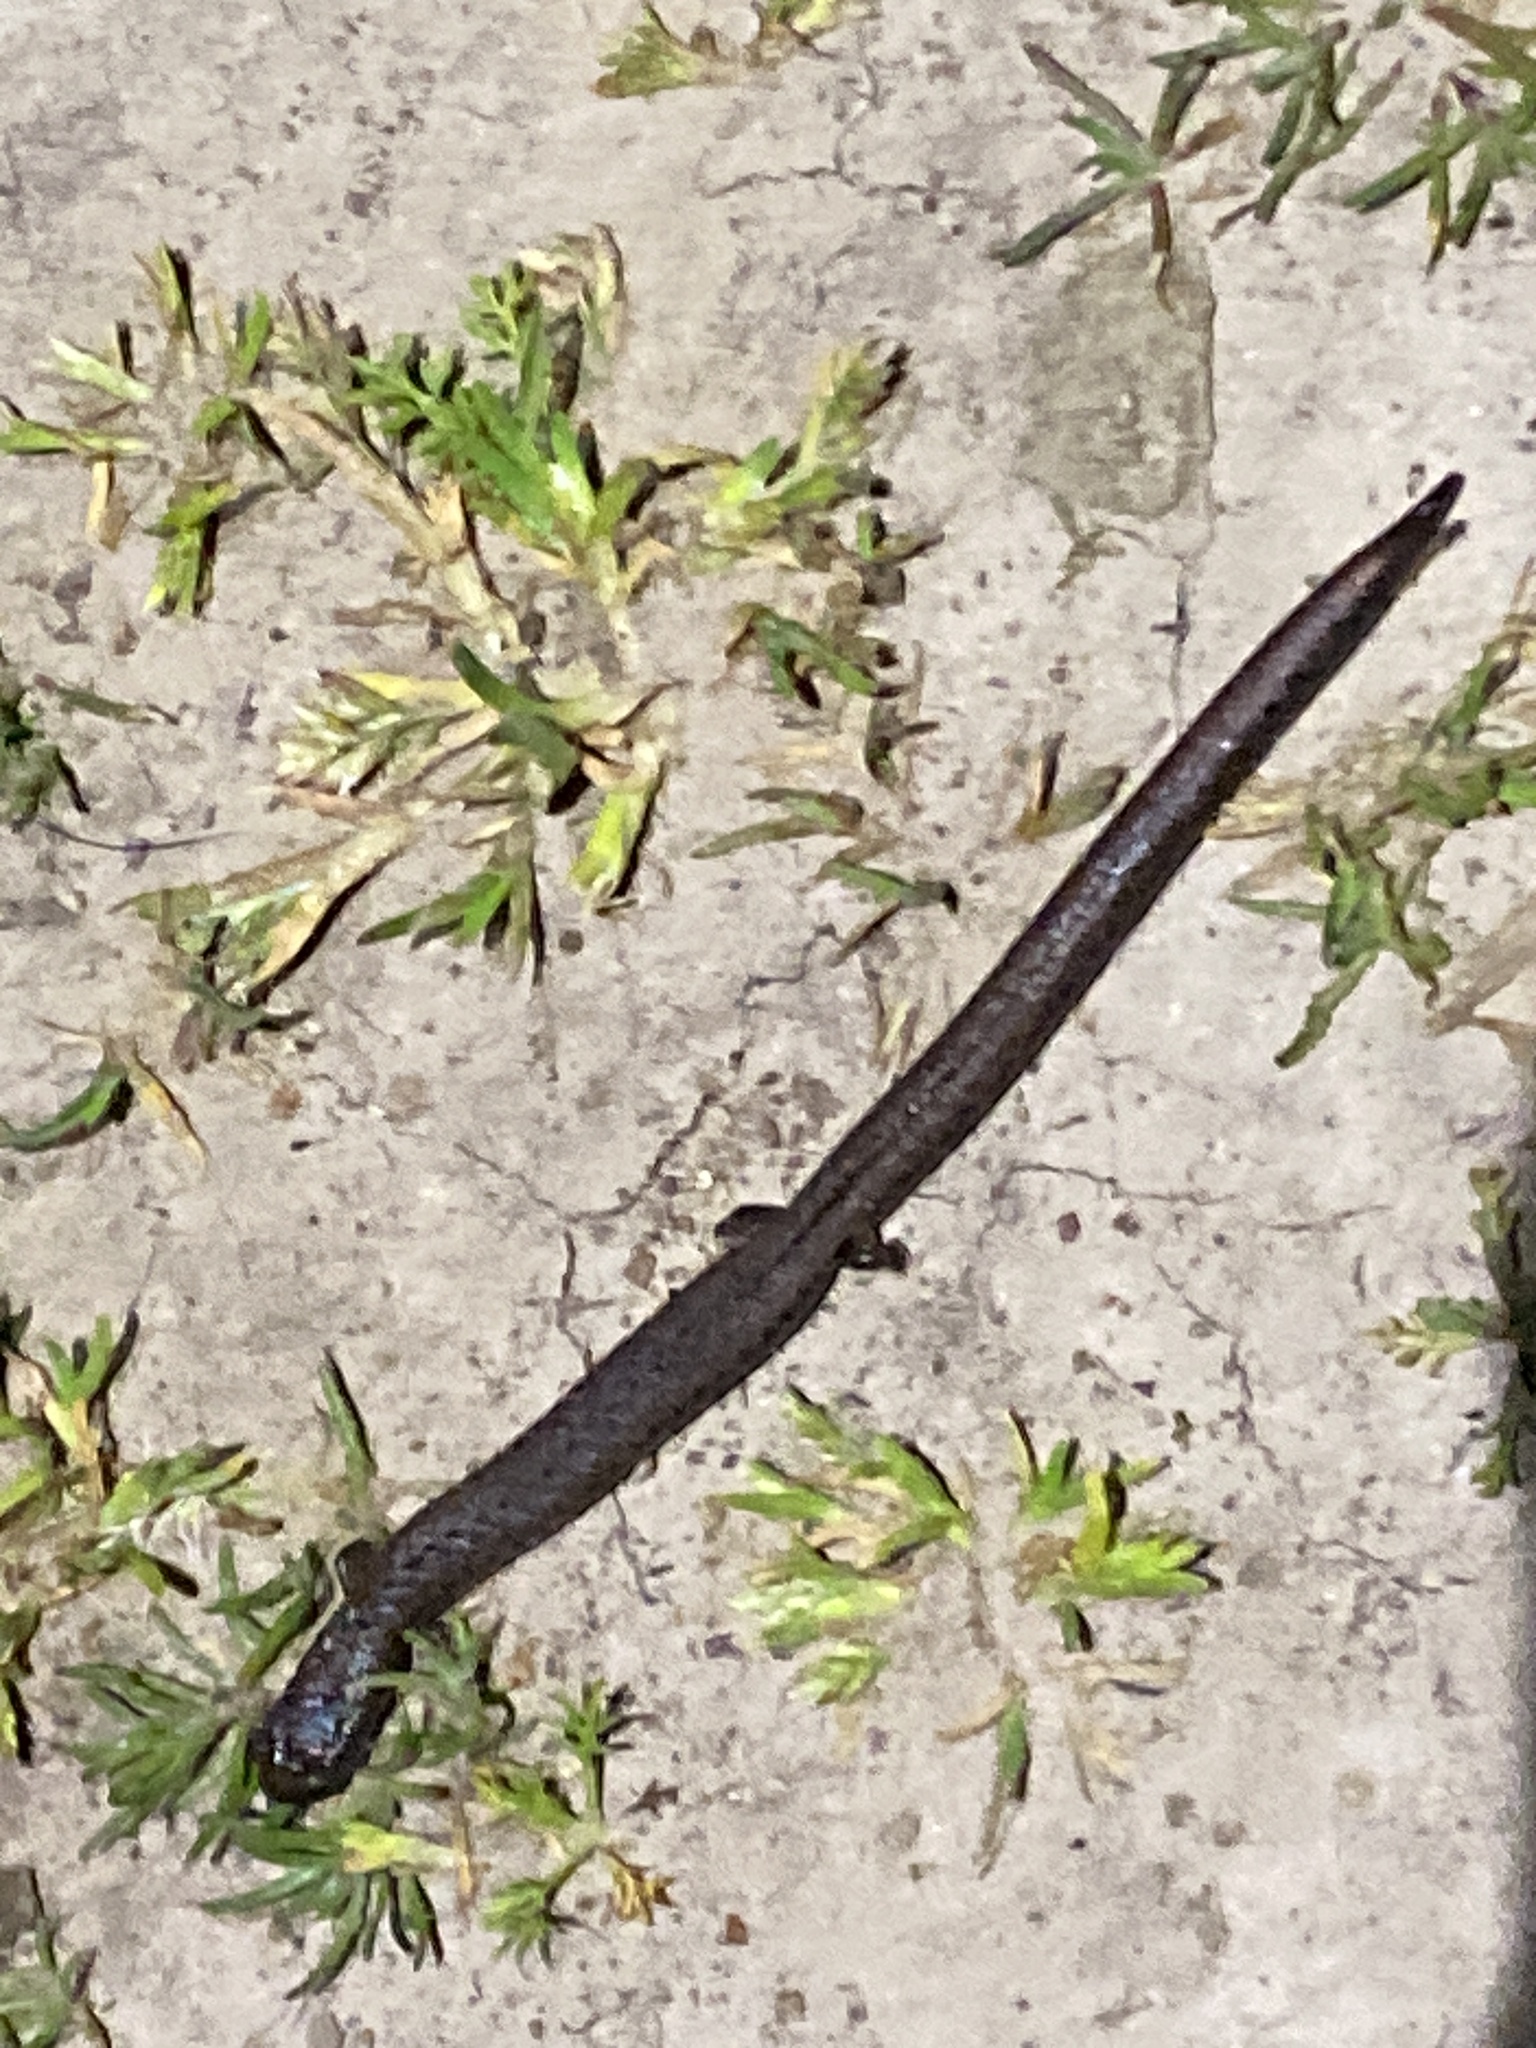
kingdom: Animalia
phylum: Chordata
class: Amphibia
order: Caudata
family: Plethodontidae
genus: Batrachoseps
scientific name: Batrachoseps attenuatus
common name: California slender salamander
